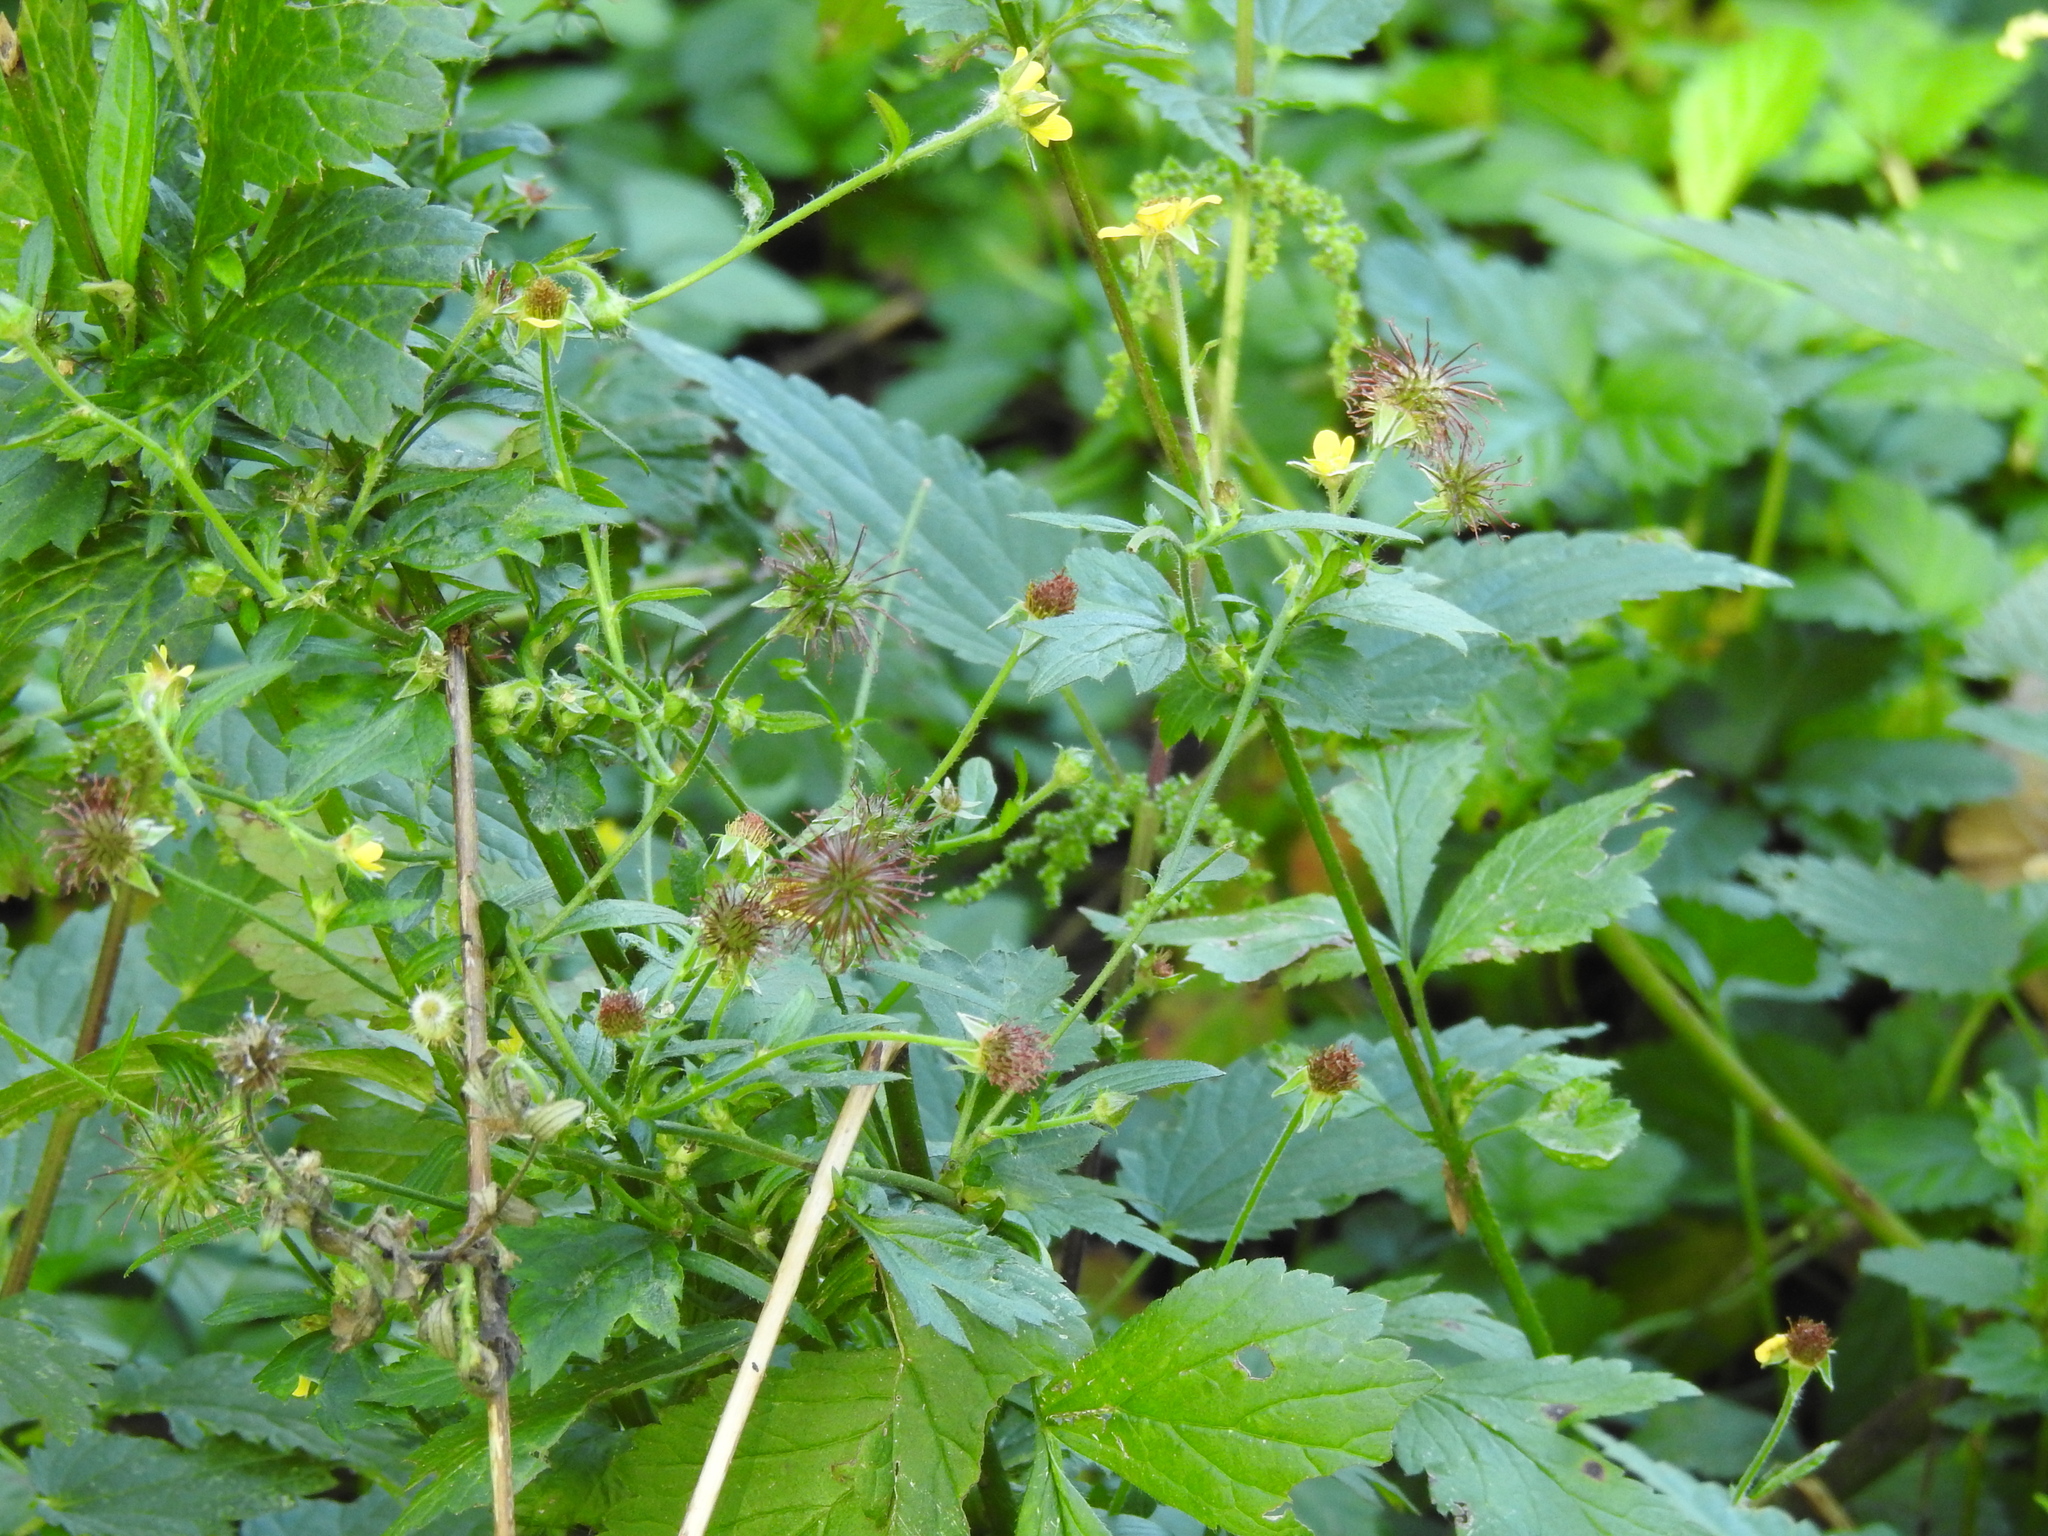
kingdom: Plantae
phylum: Tracheophyta
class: Magnoliopsida
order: Rosales
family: Rosaceae
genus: Geum
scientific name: Geum urbanum
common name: Wood avens
